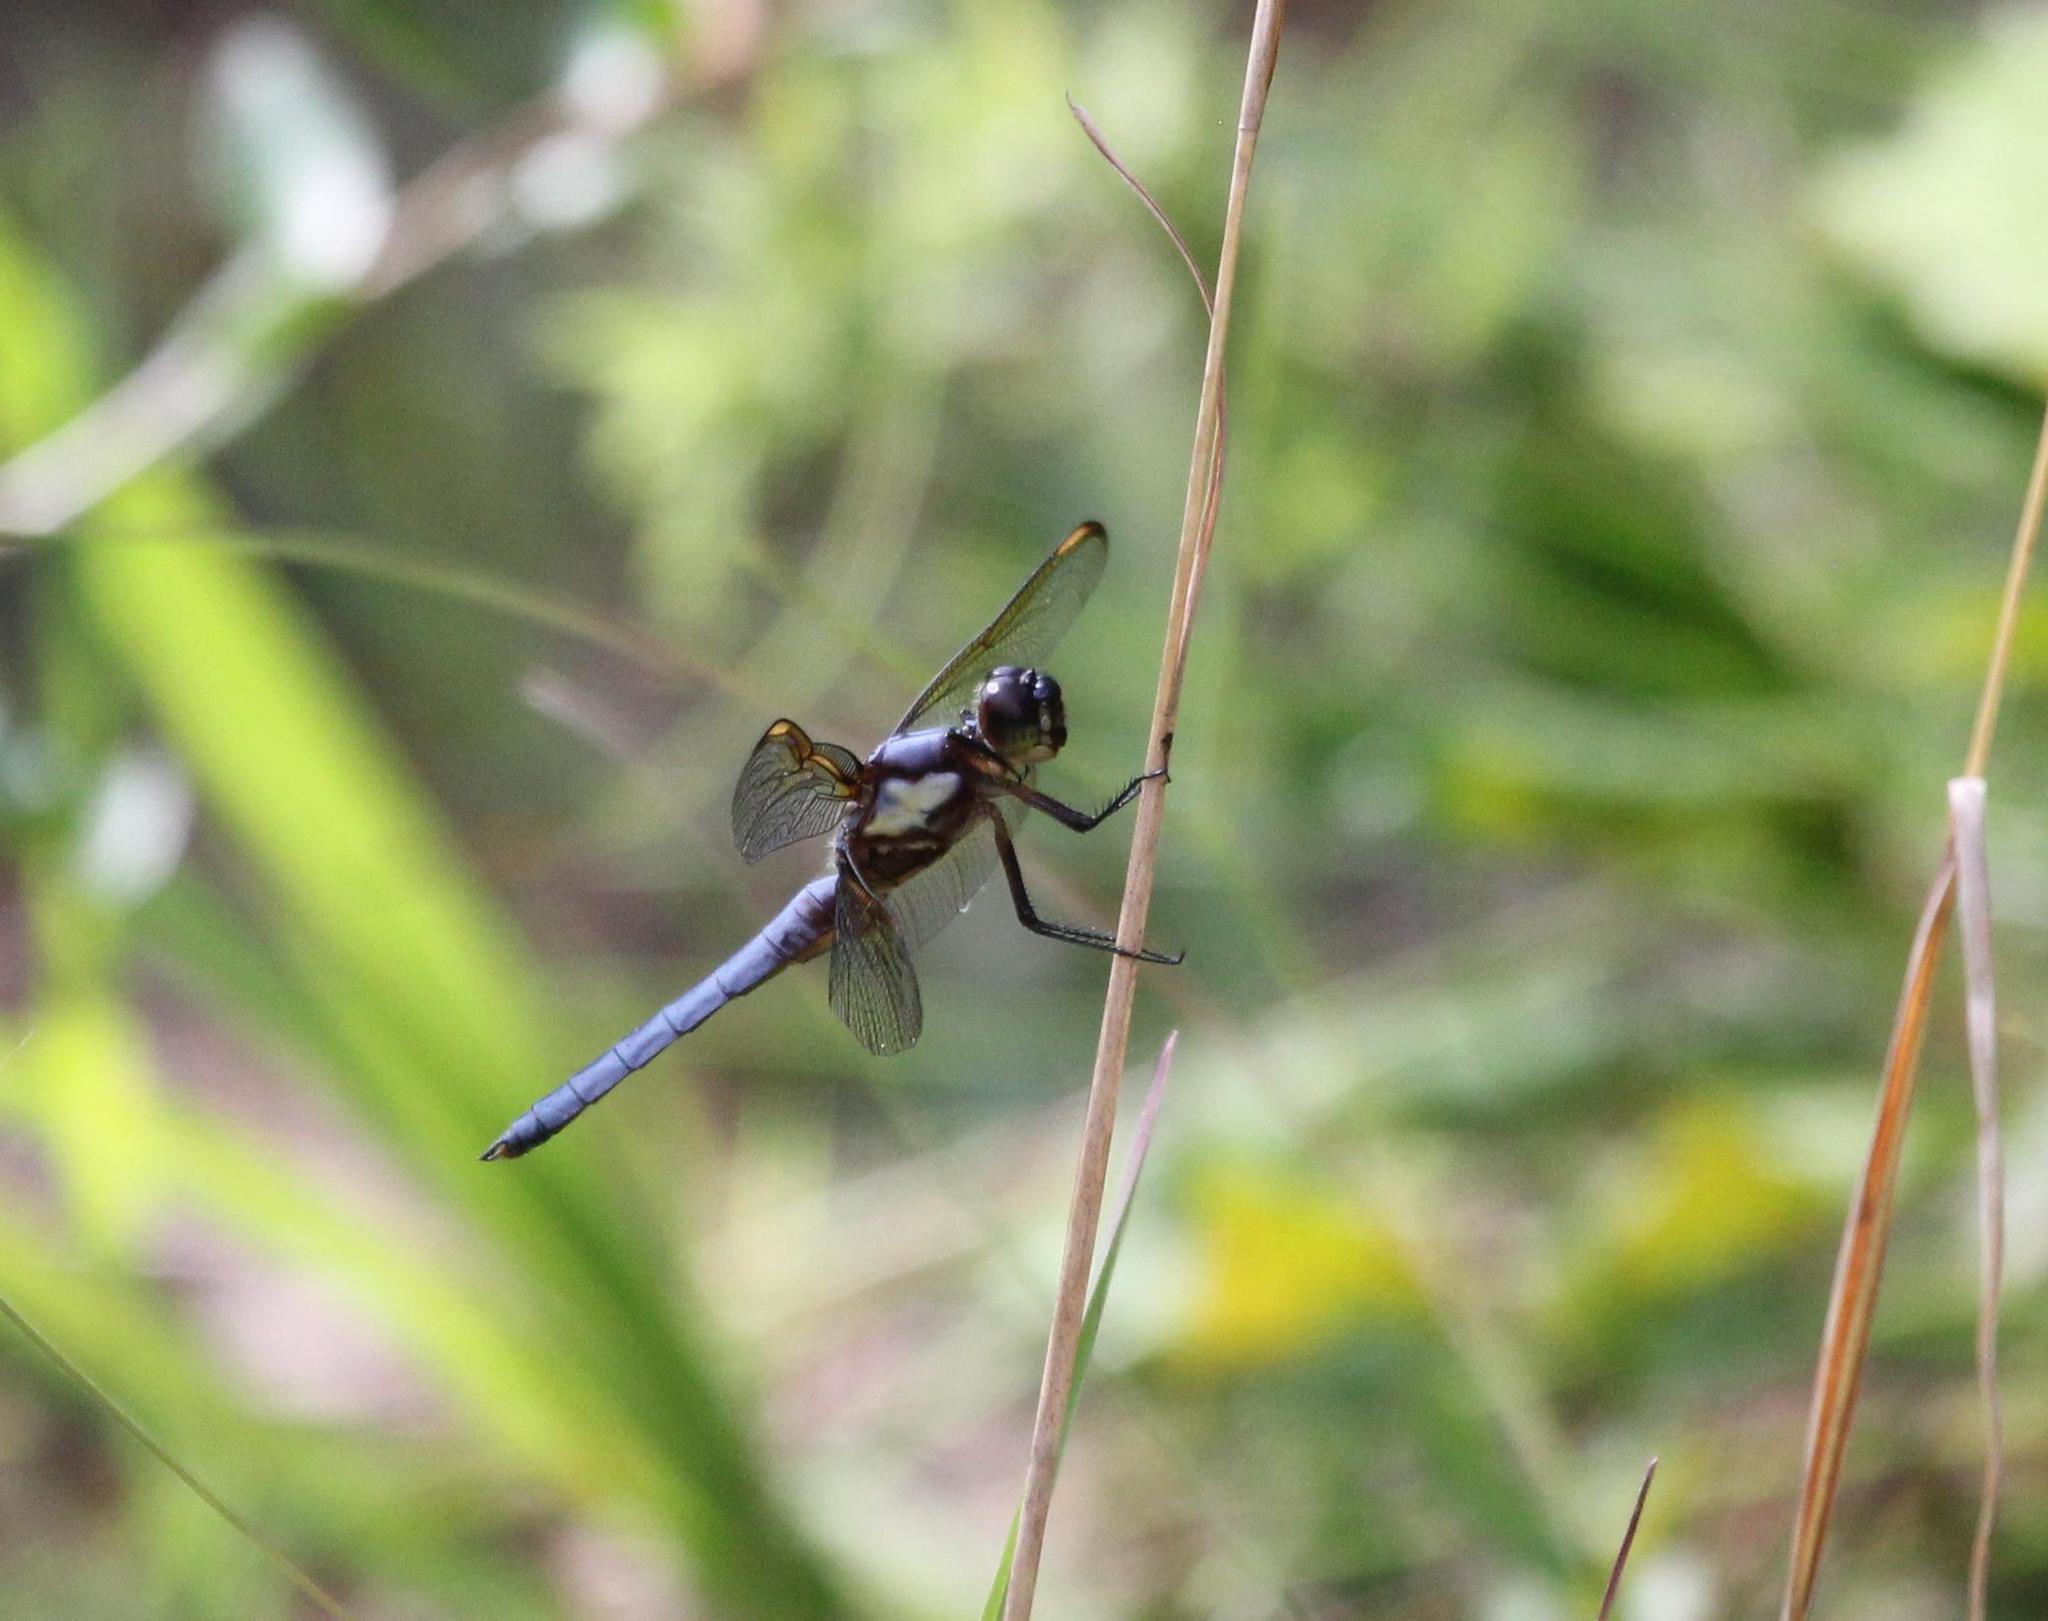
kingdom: Animalia
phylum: Arthropoda
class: Insecta
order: Odonata
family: Libellulidae
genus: Libellula
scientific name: Libellula flavida
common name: Yellow-sided skimmer
